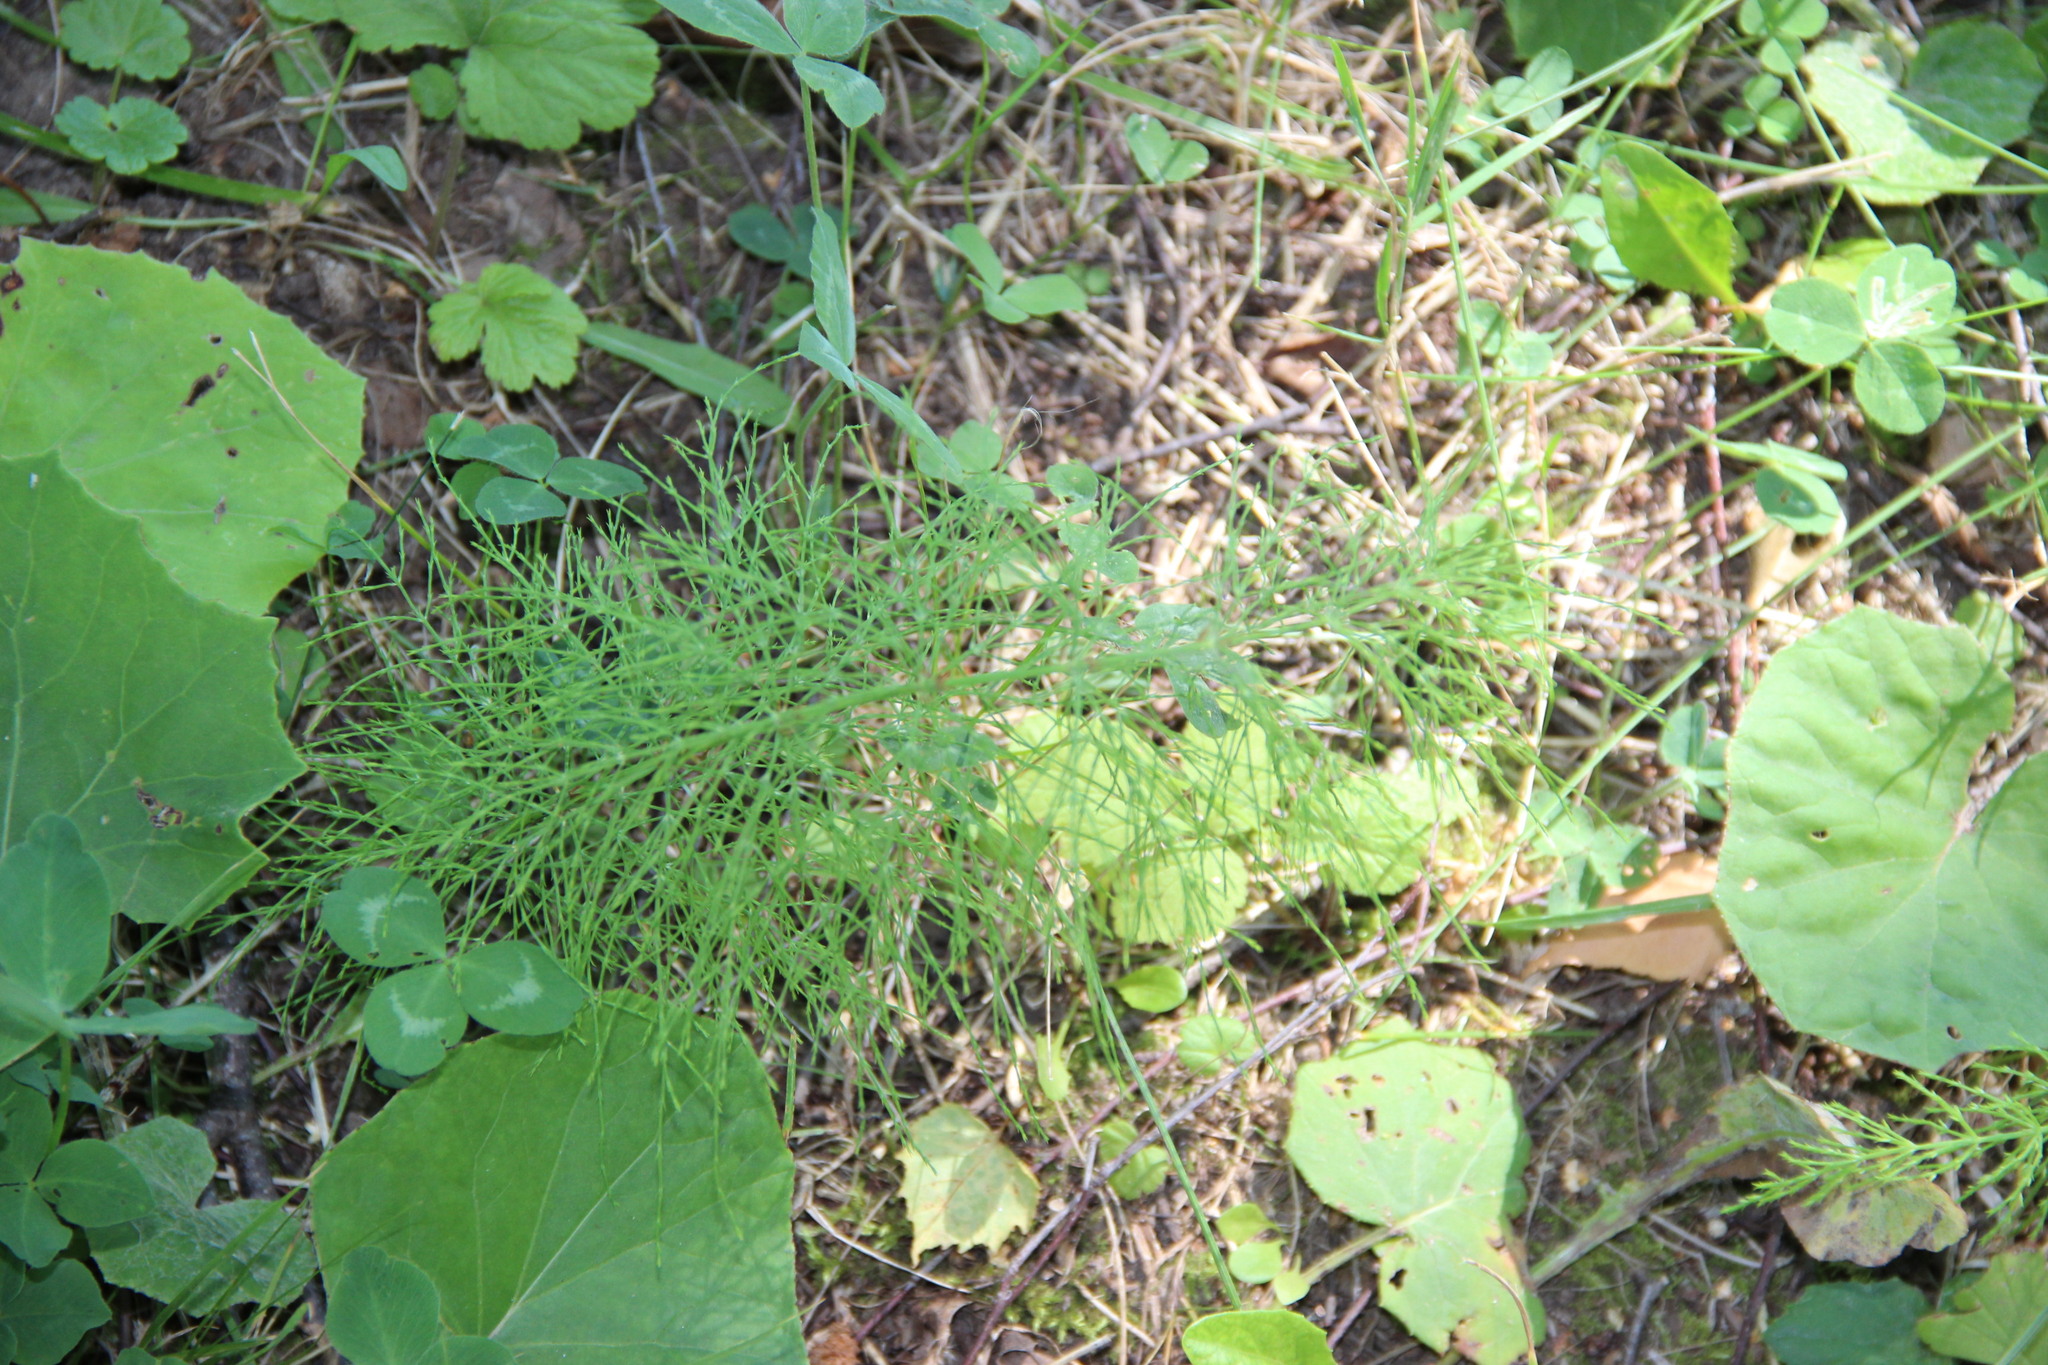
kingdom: Plantae
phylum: Tracheophyta
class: Polypodiopsida
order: Equisetales
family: Equisetaceae
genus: Equisetum
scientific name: Equisetum sylvaticum
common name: Wood horsetail
